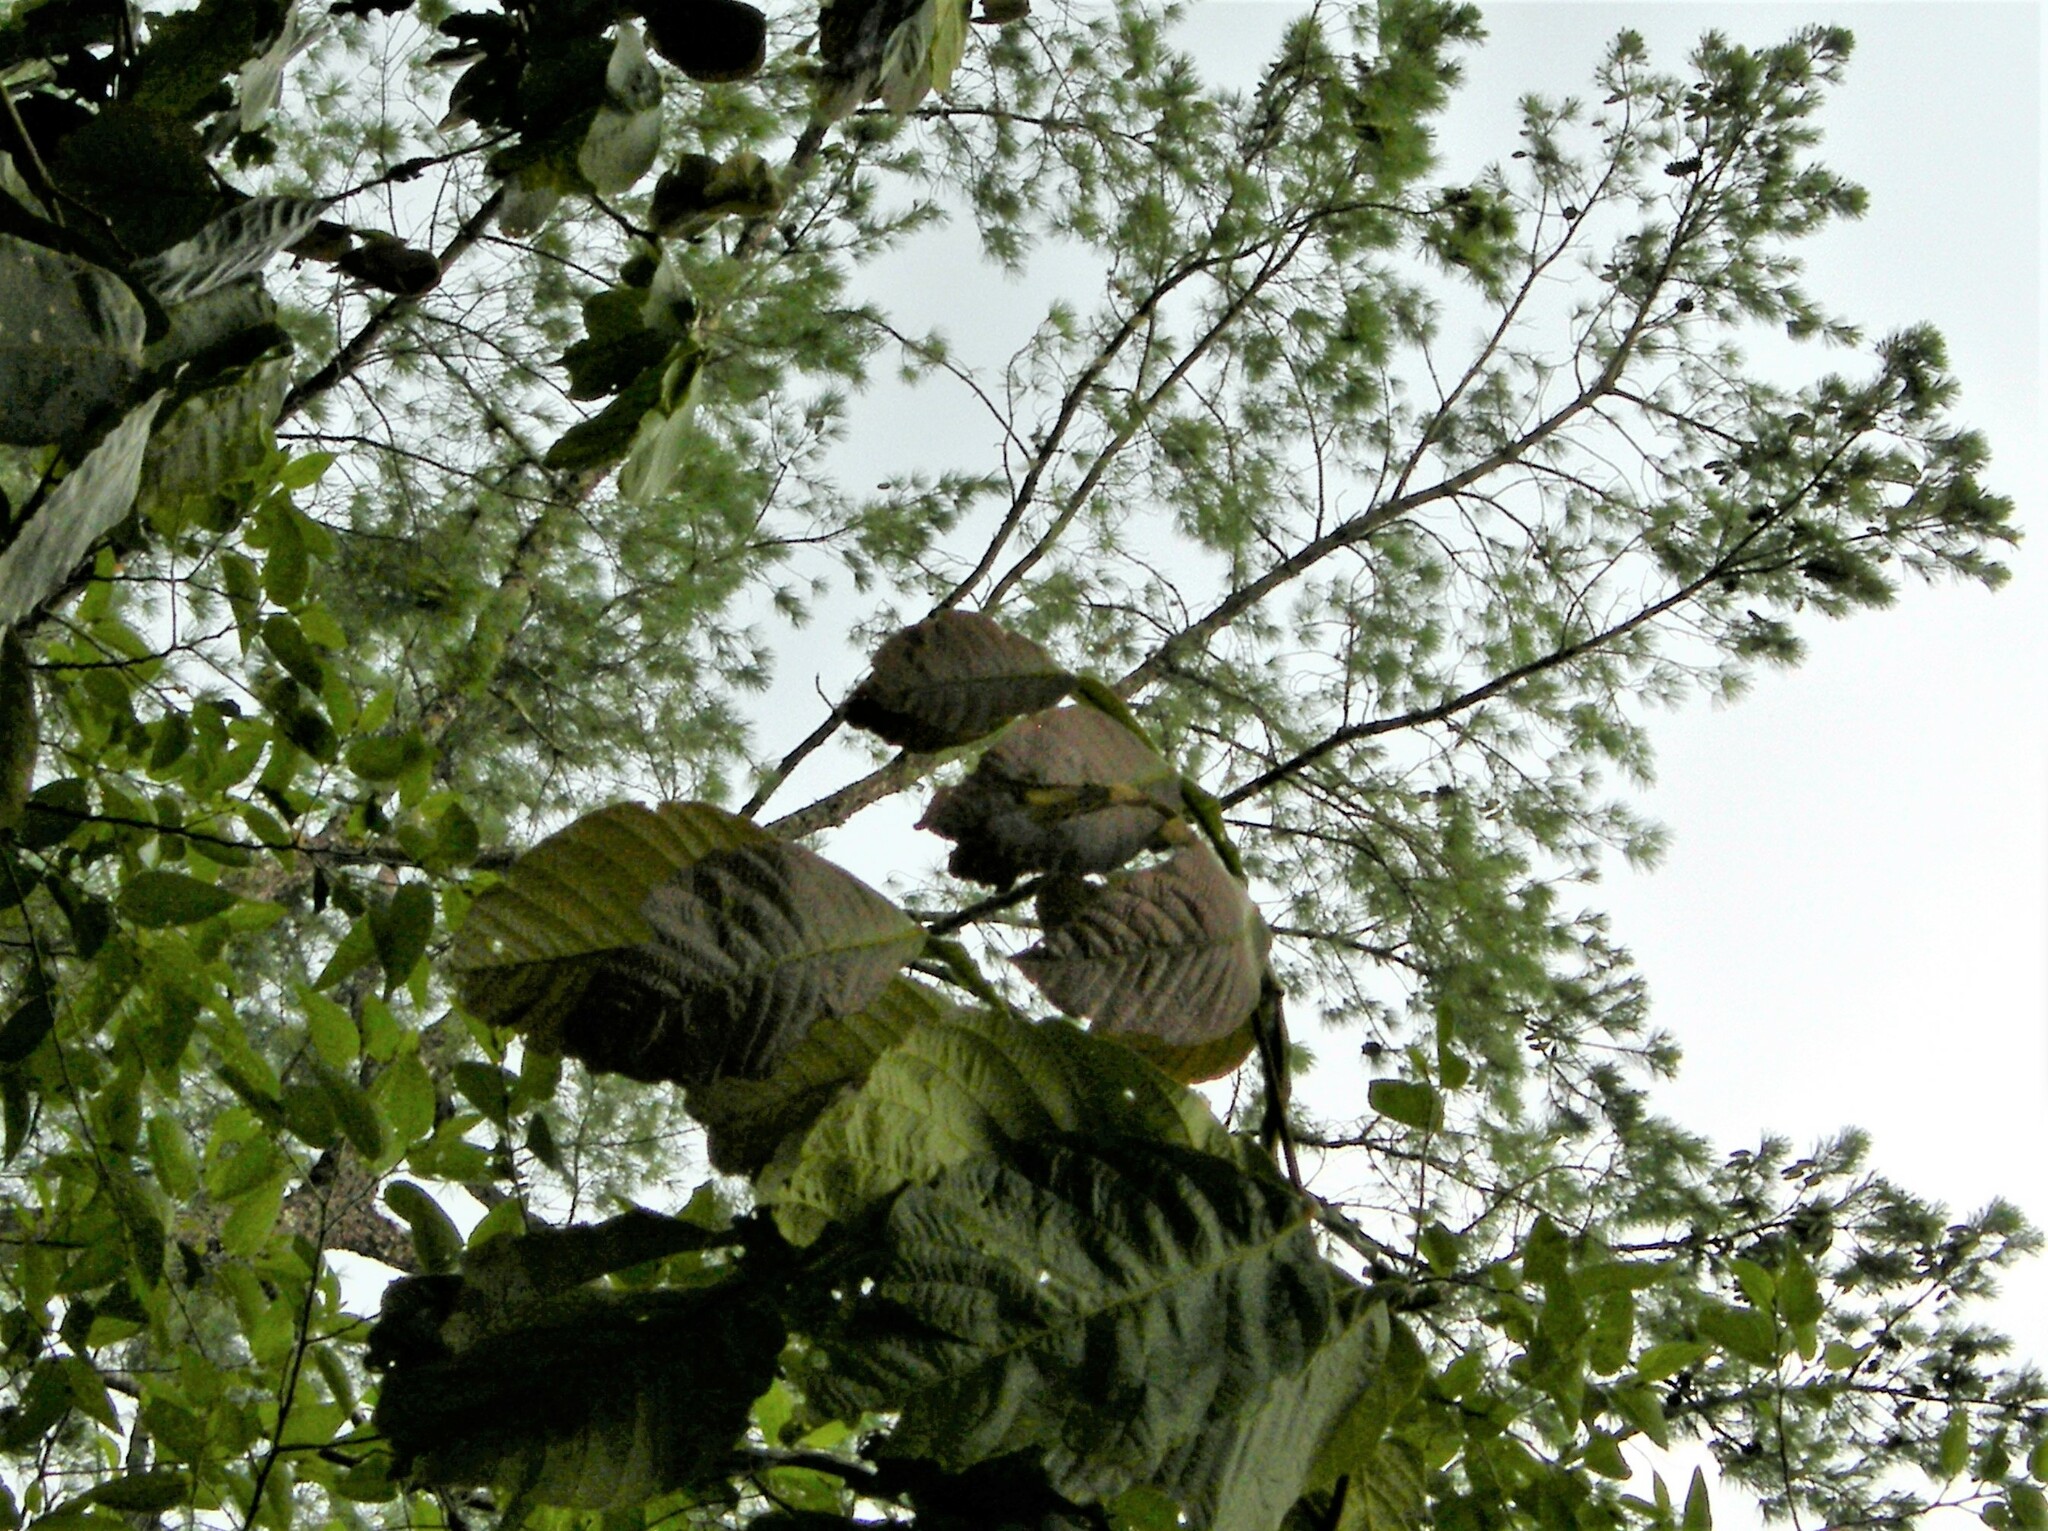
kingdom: Plantae
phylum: Tracheophyta
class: Pinopsida
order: Pinales
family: Pinaceae
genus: Pinus
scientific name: Pinus strobus
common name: Weymouth pine
